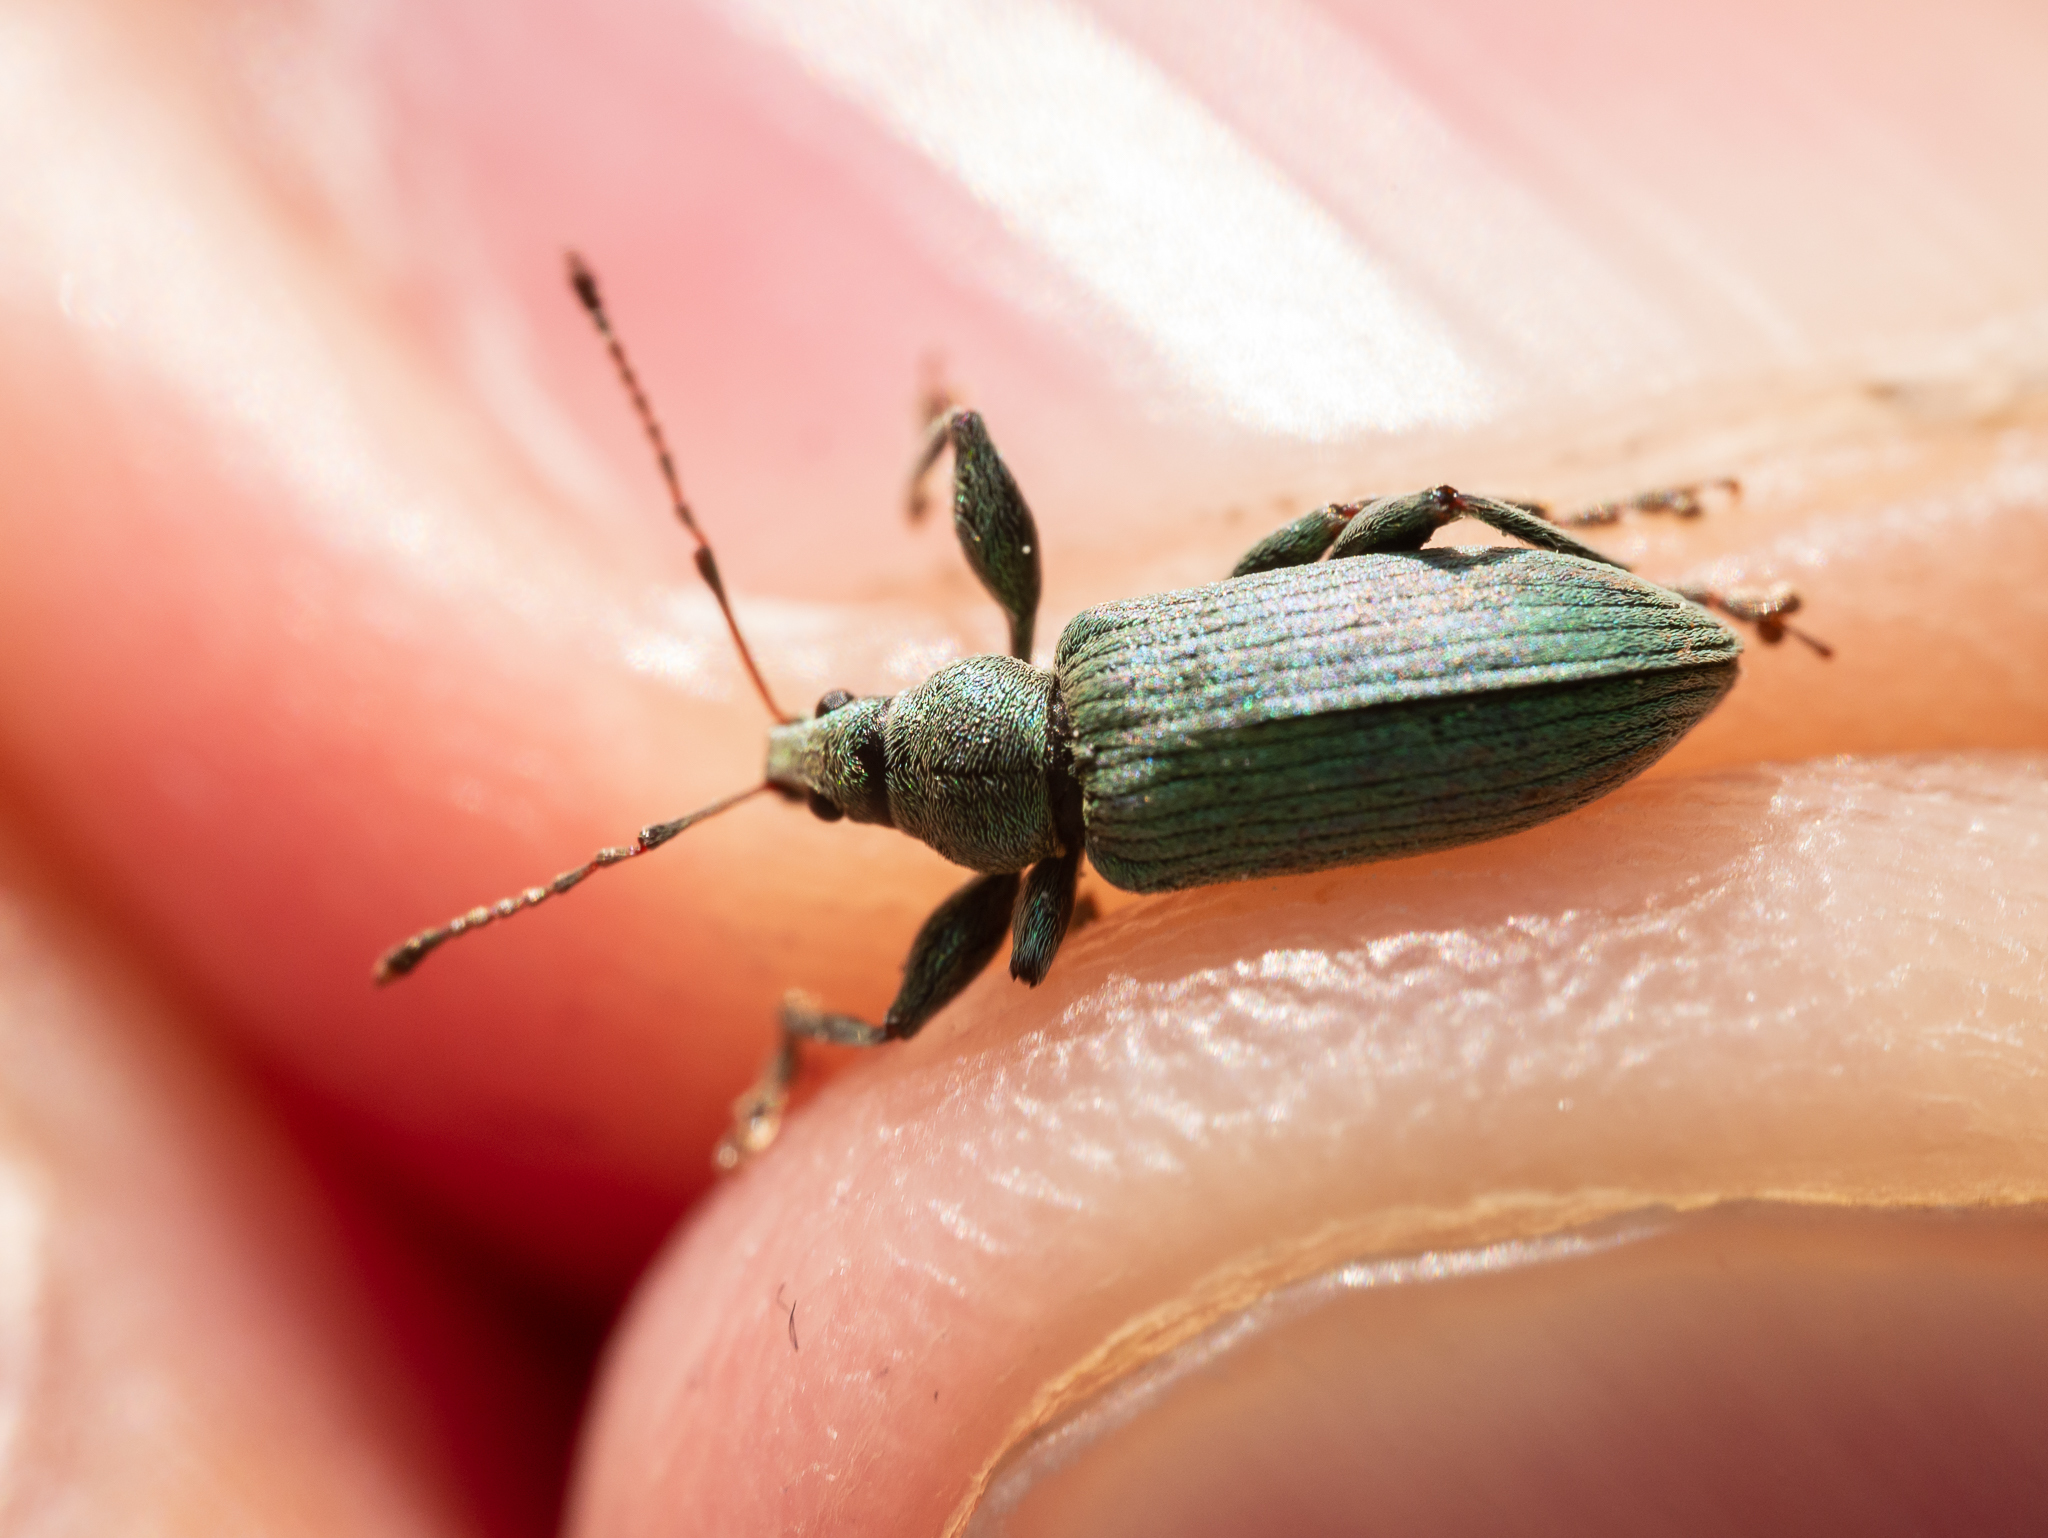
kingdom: Animalia
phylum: Arthropoda
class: Insecta
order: Coleoptera
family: Curculionidae
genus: Phyllobius
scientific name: Phyllobius pomaceus
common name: Green nettle weevil
